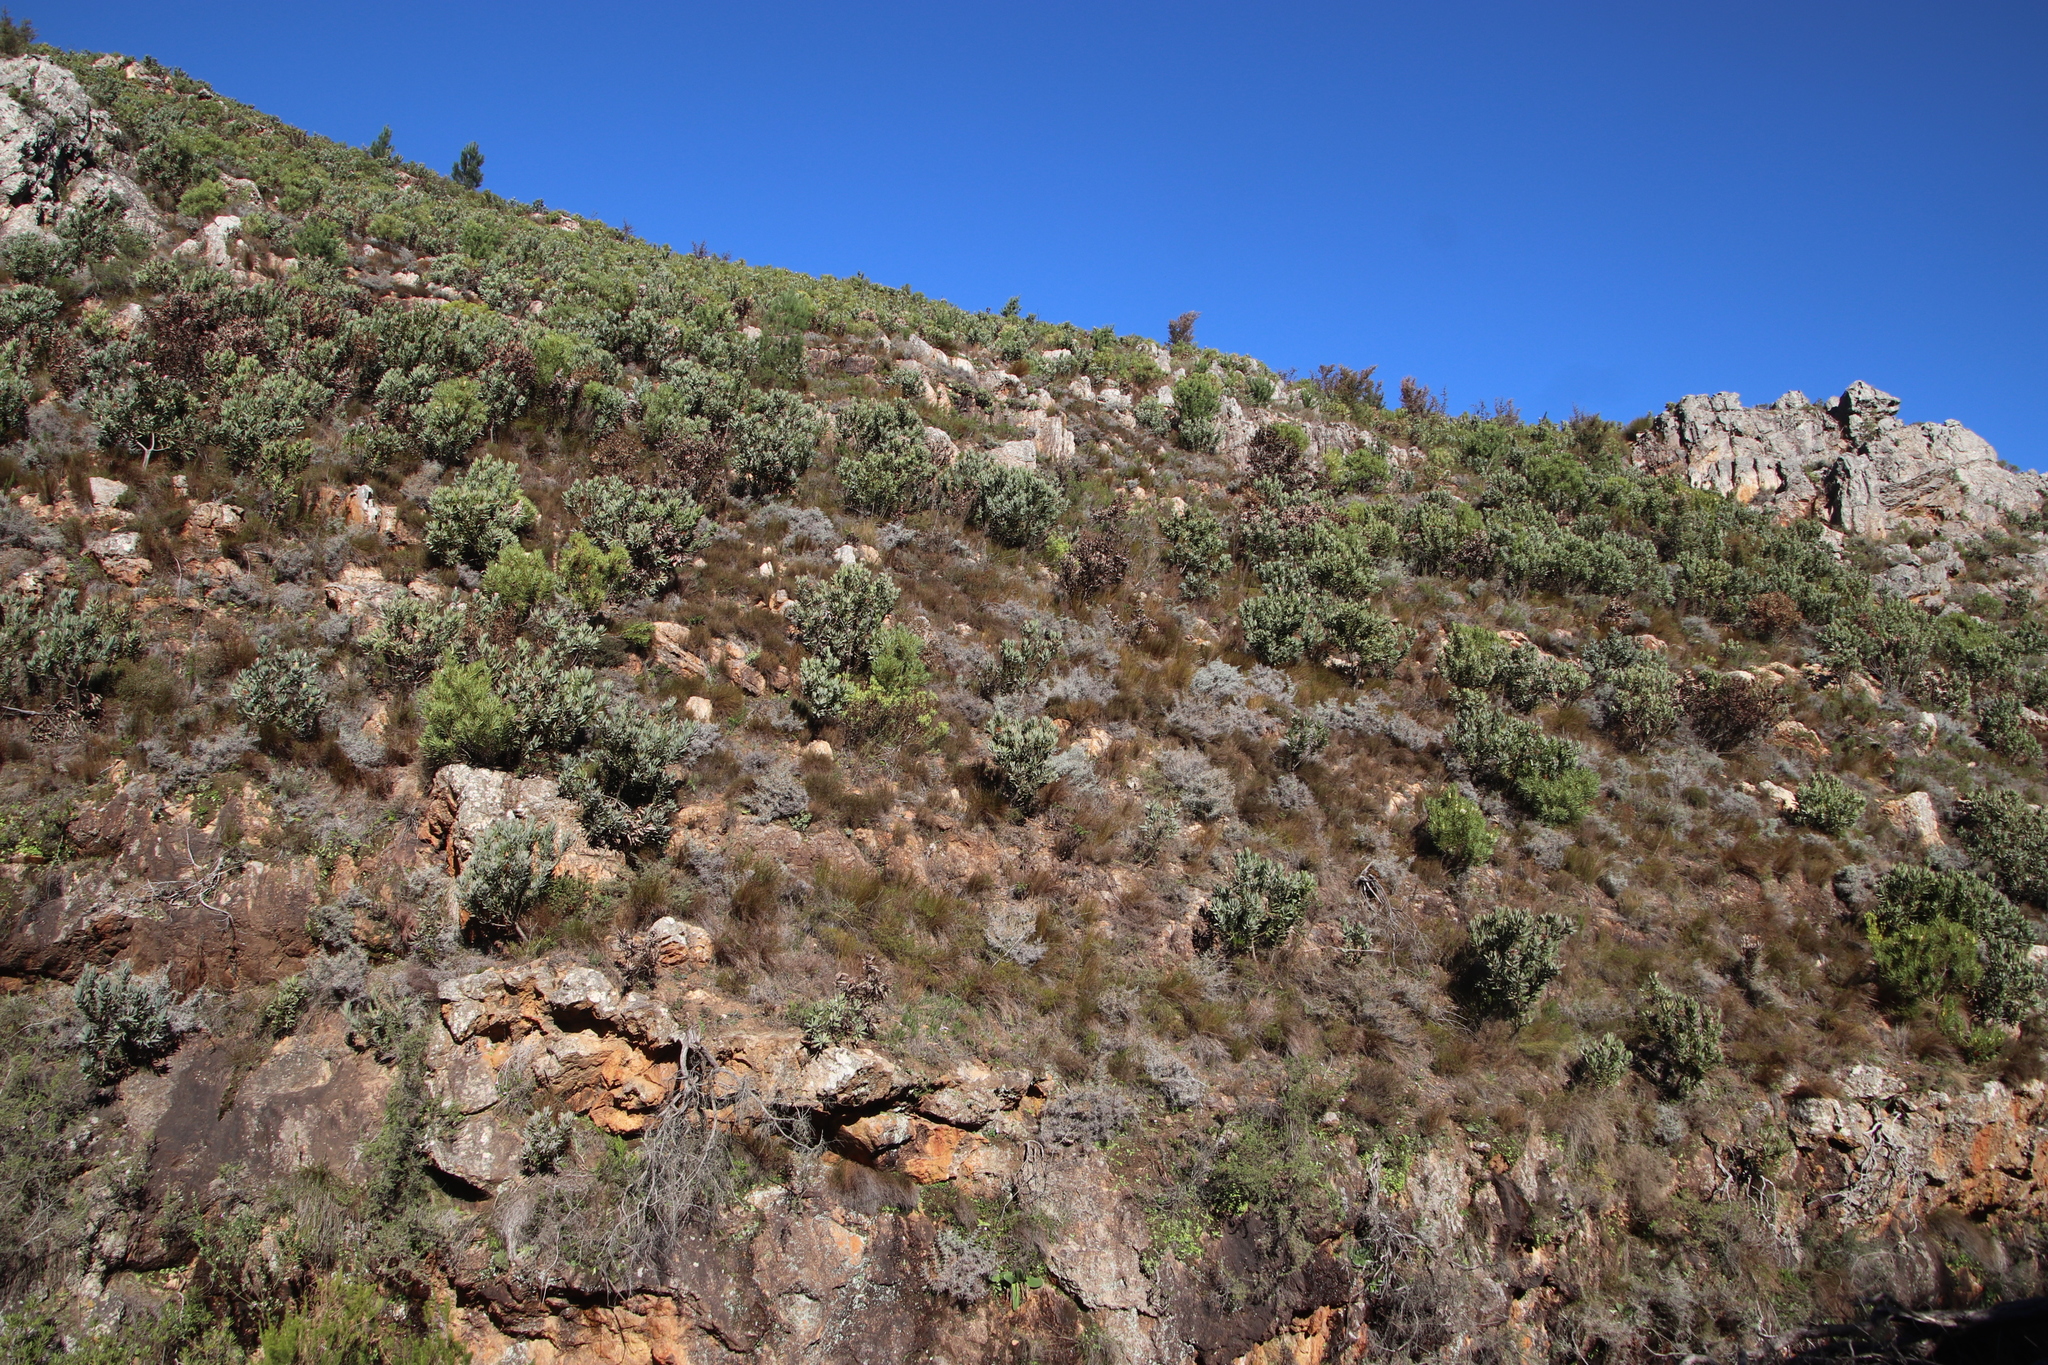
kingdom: Plantae
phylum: Tracheophyta
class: Magnoliopsida
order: Proteales
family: Proteaceae
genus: Protea
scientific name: Protea laurifolia
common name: Grey-leaf sugarbsh
